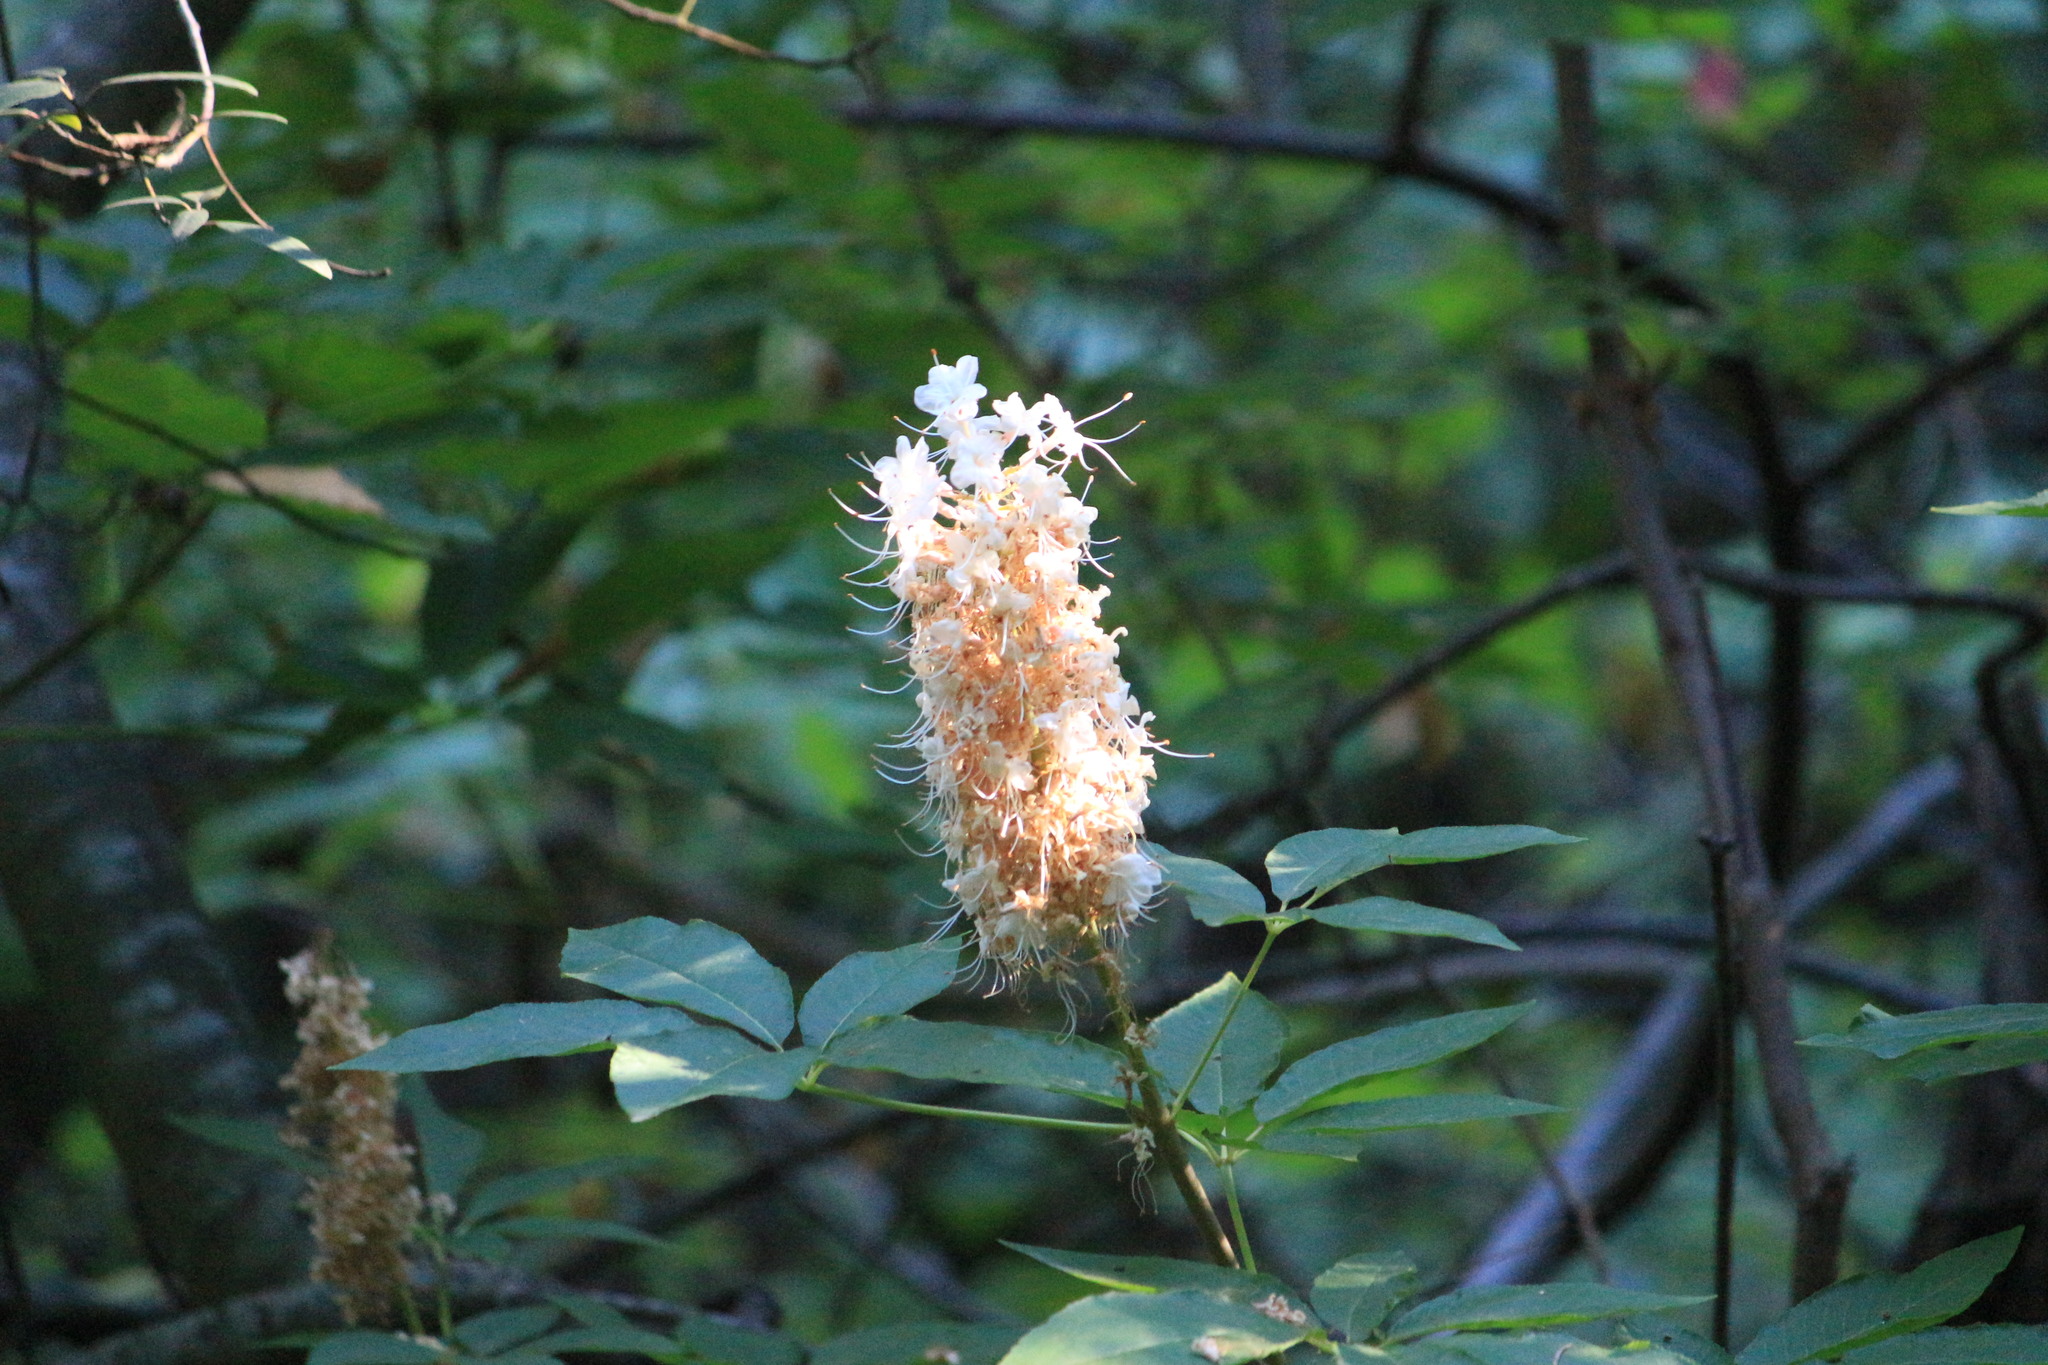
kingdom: Plantae
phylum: Tracheophyta
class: Magnoliopsida
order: Sapindales
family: Sapindaceae
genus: Aesculus
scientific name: Aesculus californica
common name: California buckeye
